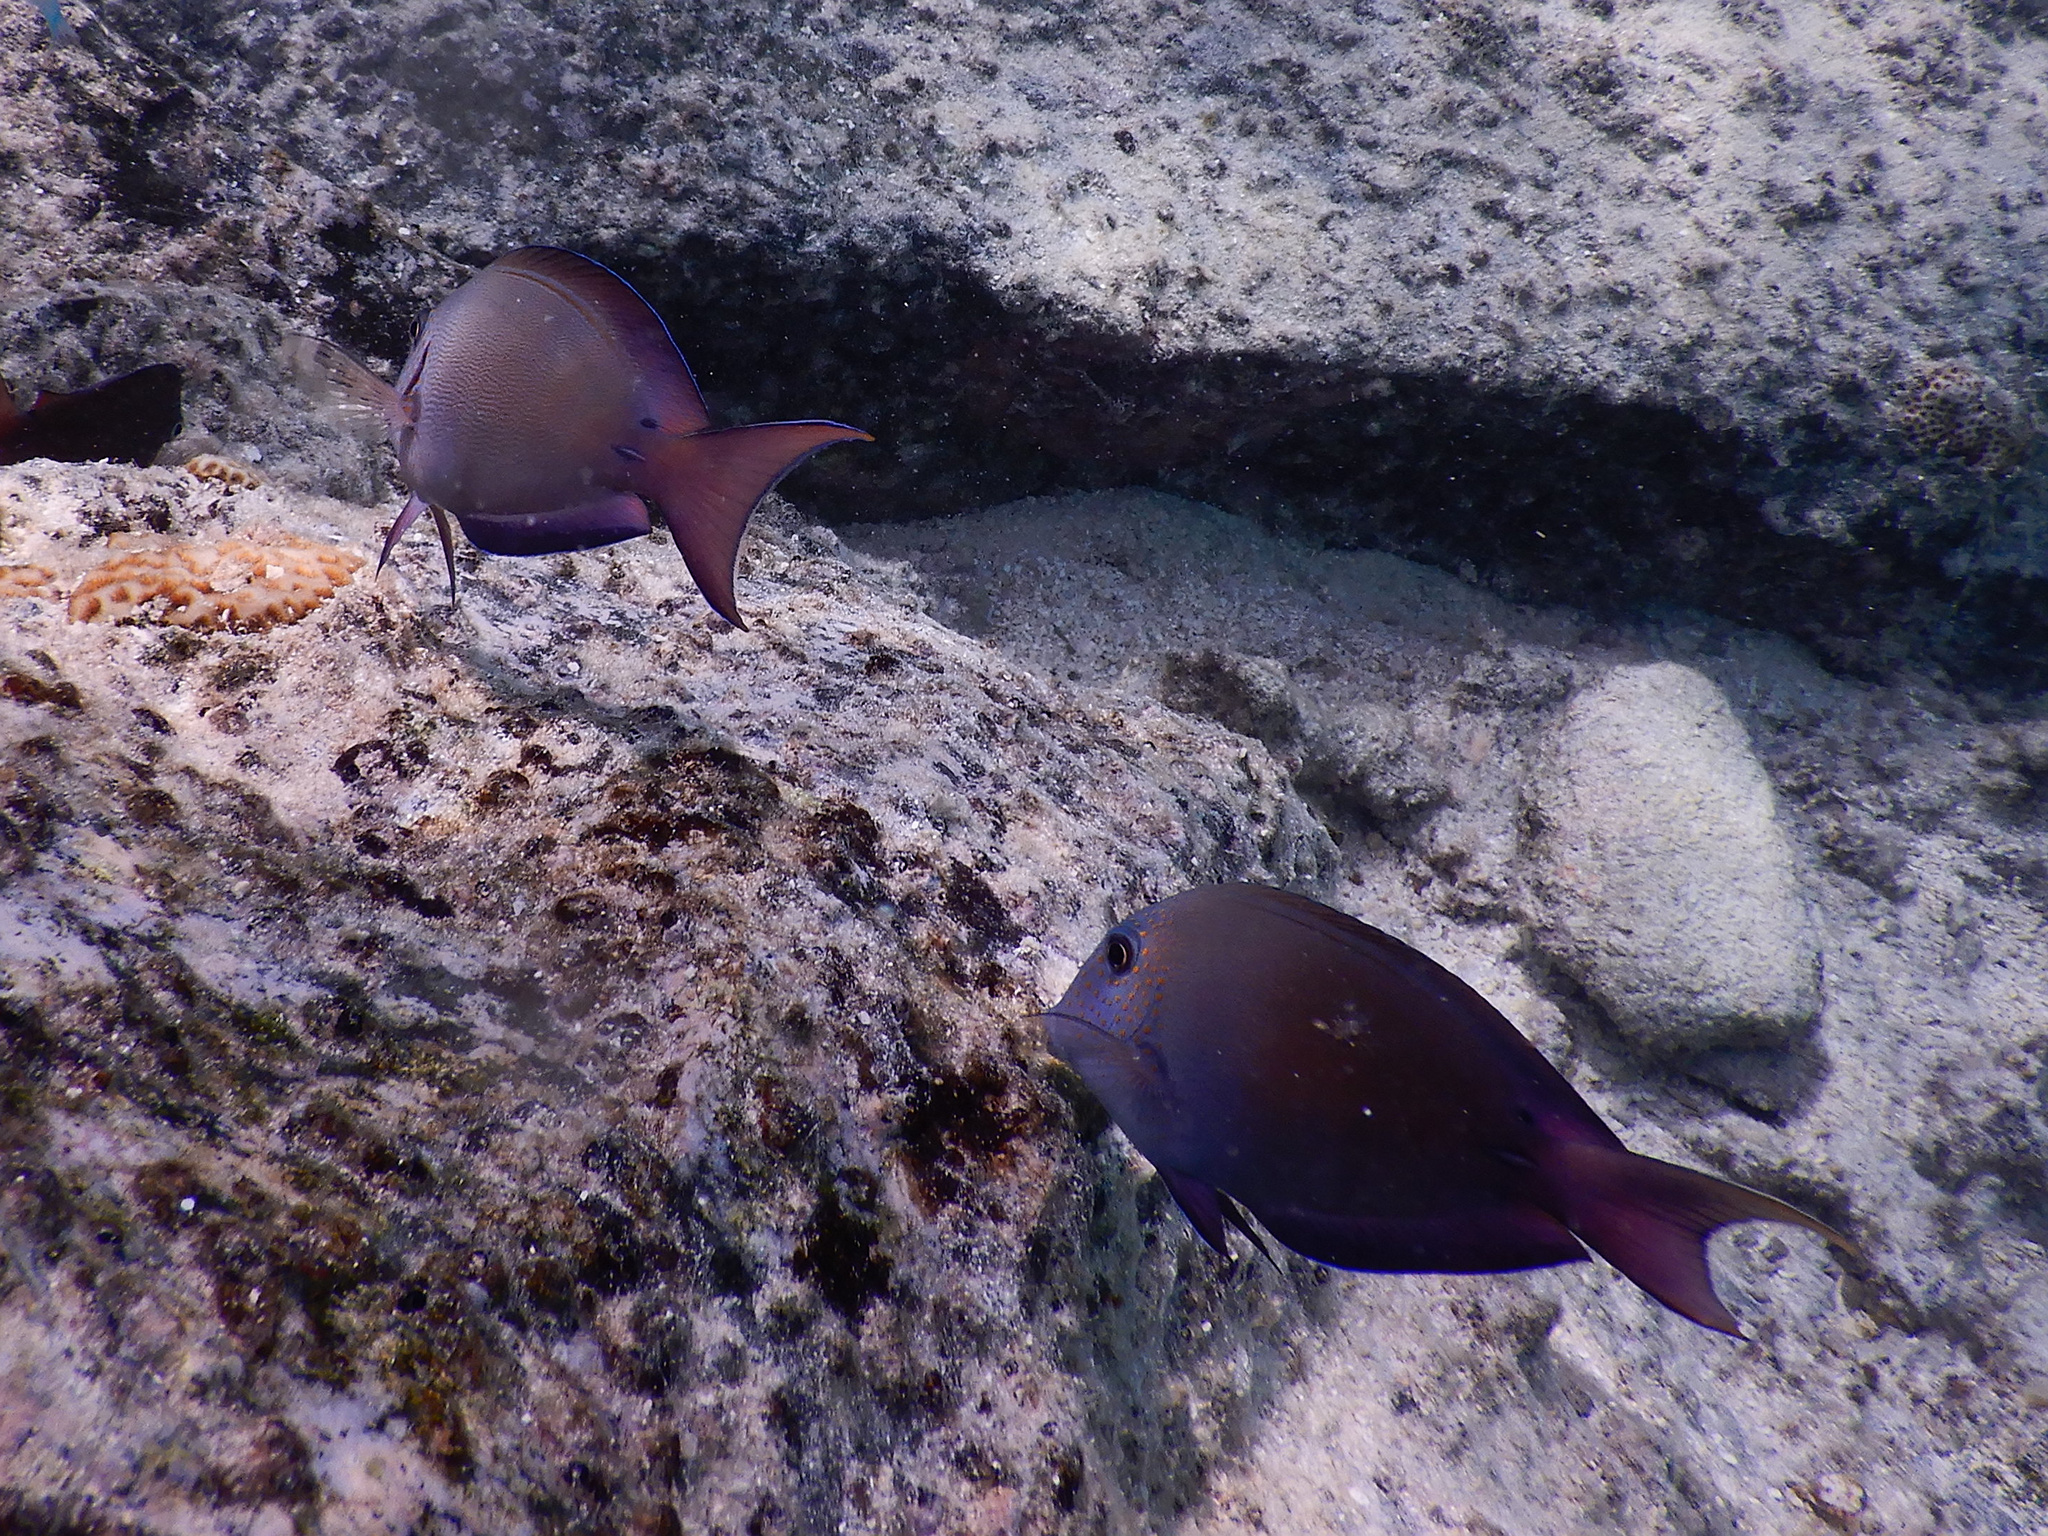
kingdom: Animalia
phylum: Chordata
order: Perciformes
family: Acanthuridae
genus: Acanthurus
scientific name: Acanthurus nigrofuscus
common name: Blackspot surgeonfish
